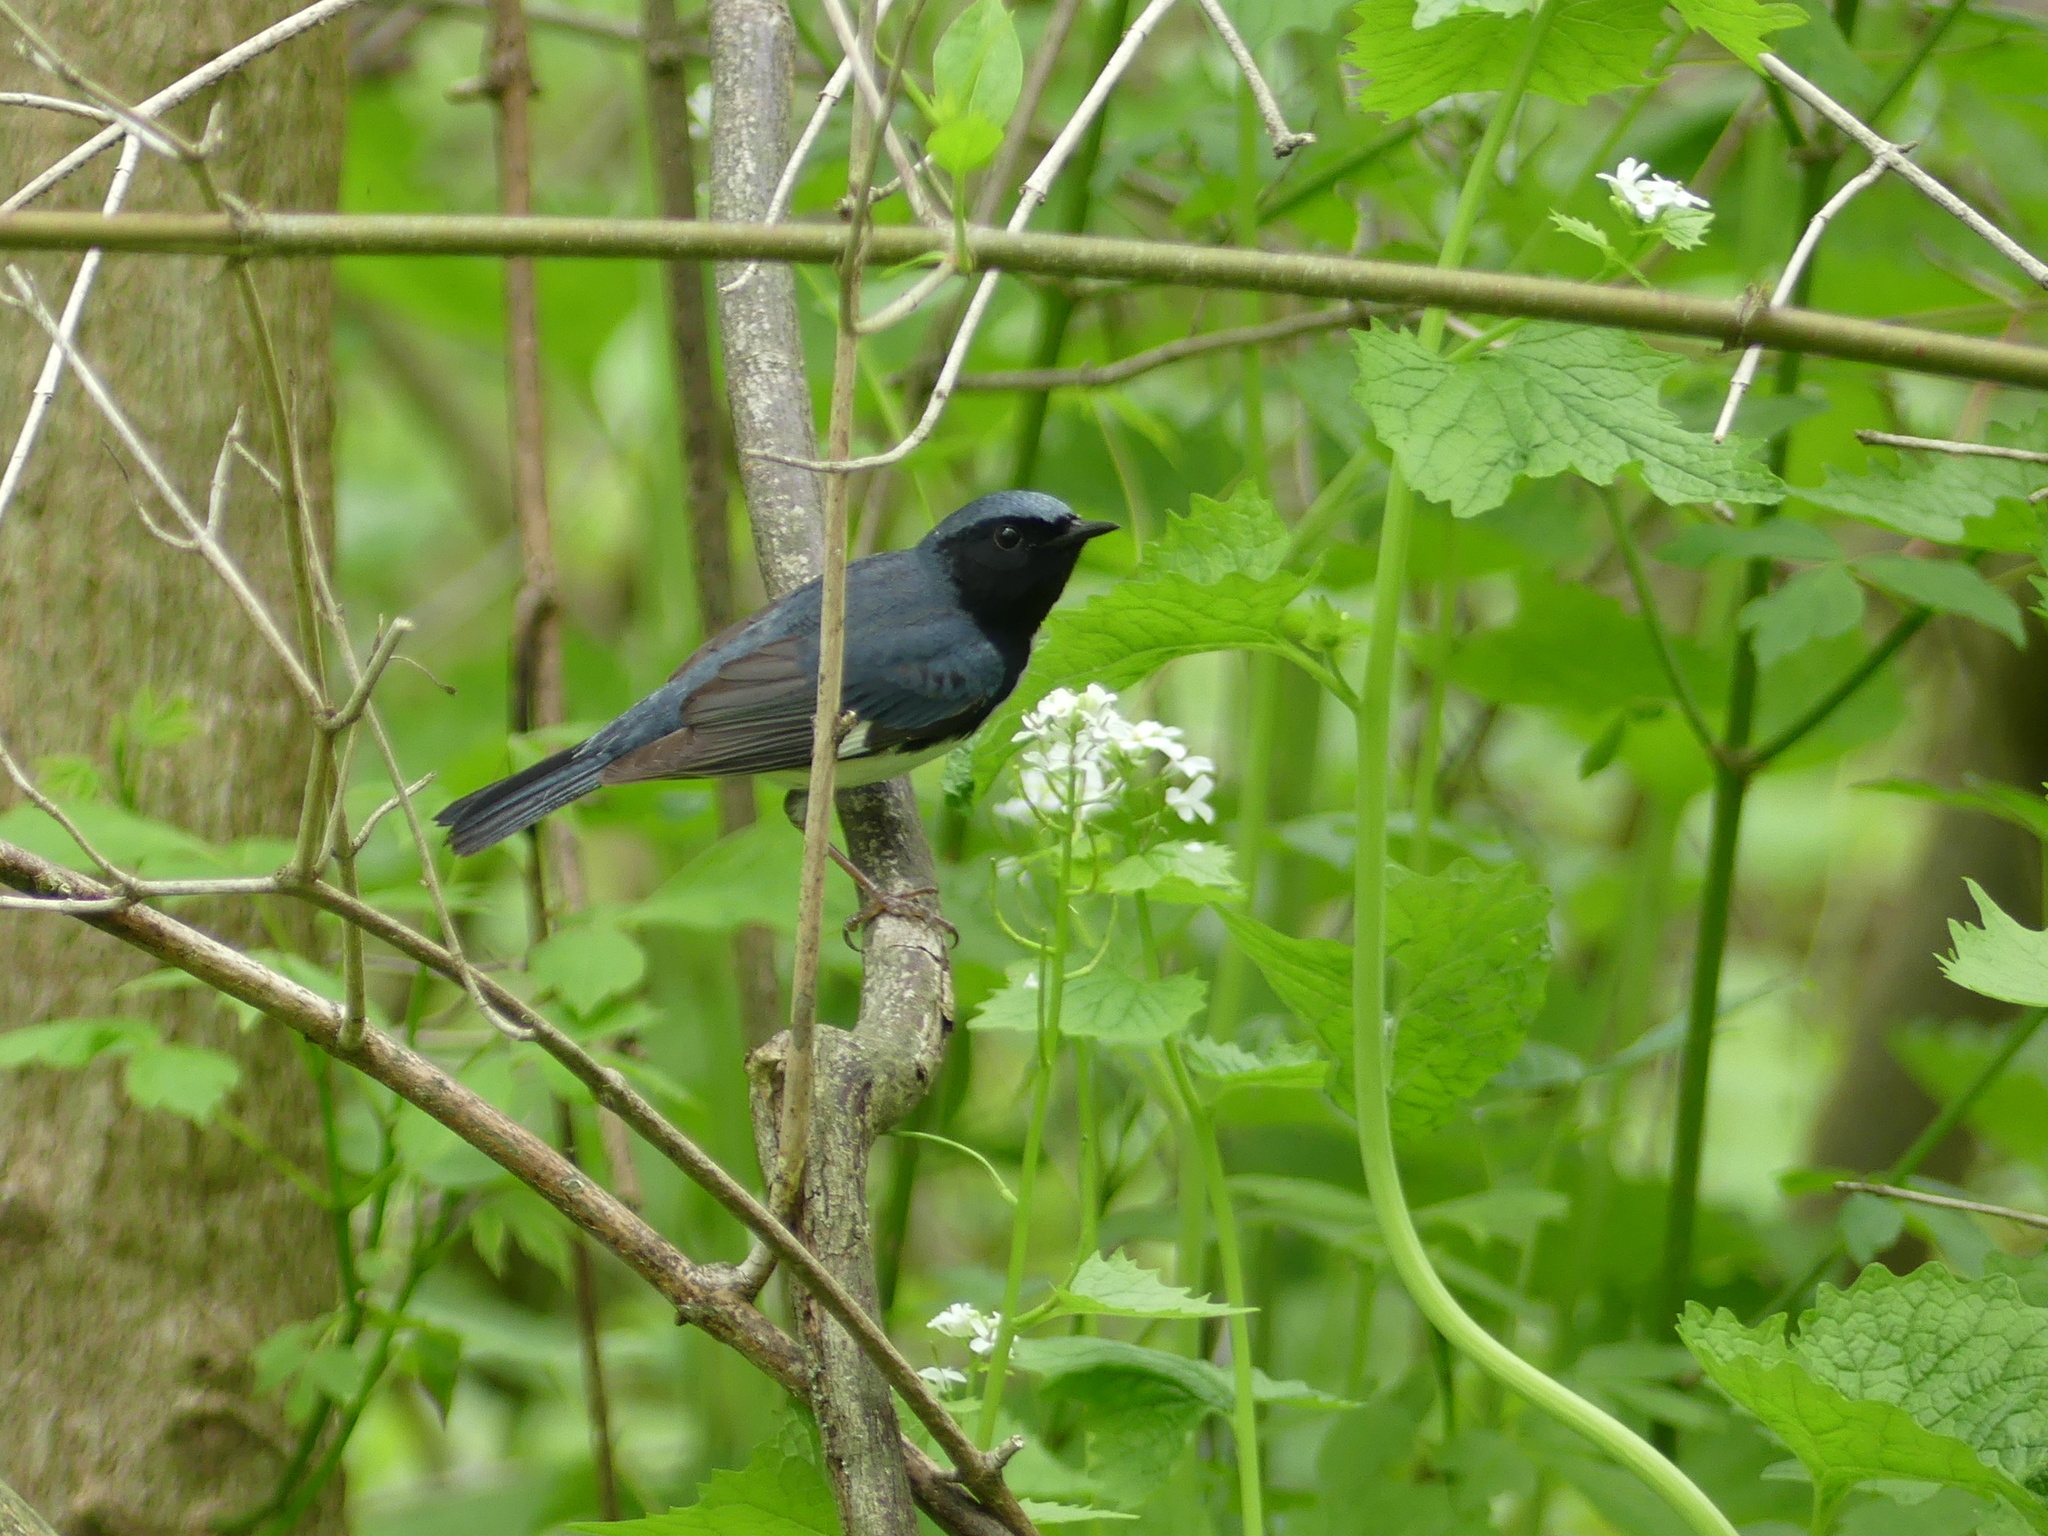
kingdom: Animalia
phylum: Chordata
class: Aves
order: Passeriformes
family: Parulidae
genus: Setophaga
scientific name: Setophaga caerulescens
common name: Black-throated blue warbler
